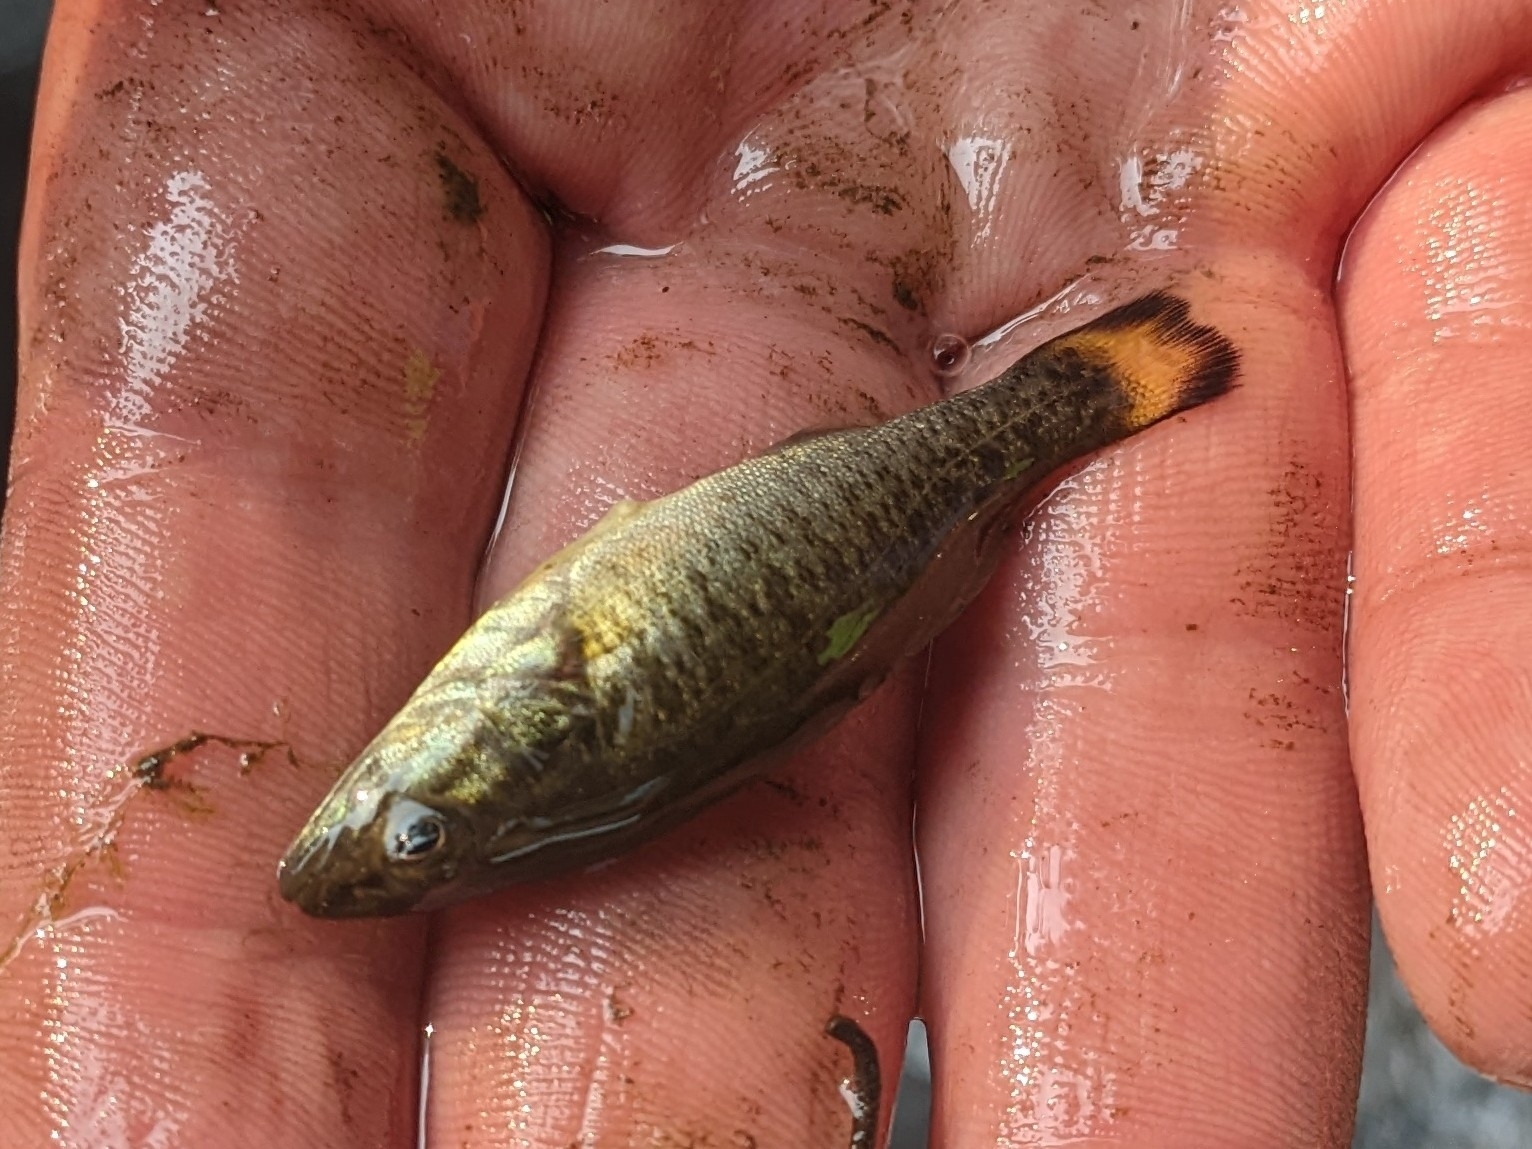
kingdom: Animalia
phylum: Chordata
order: Perciformes
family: Centrarchidae
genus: Micropterus
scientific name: Micropterus dolomieu
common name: Smallmouth bass
